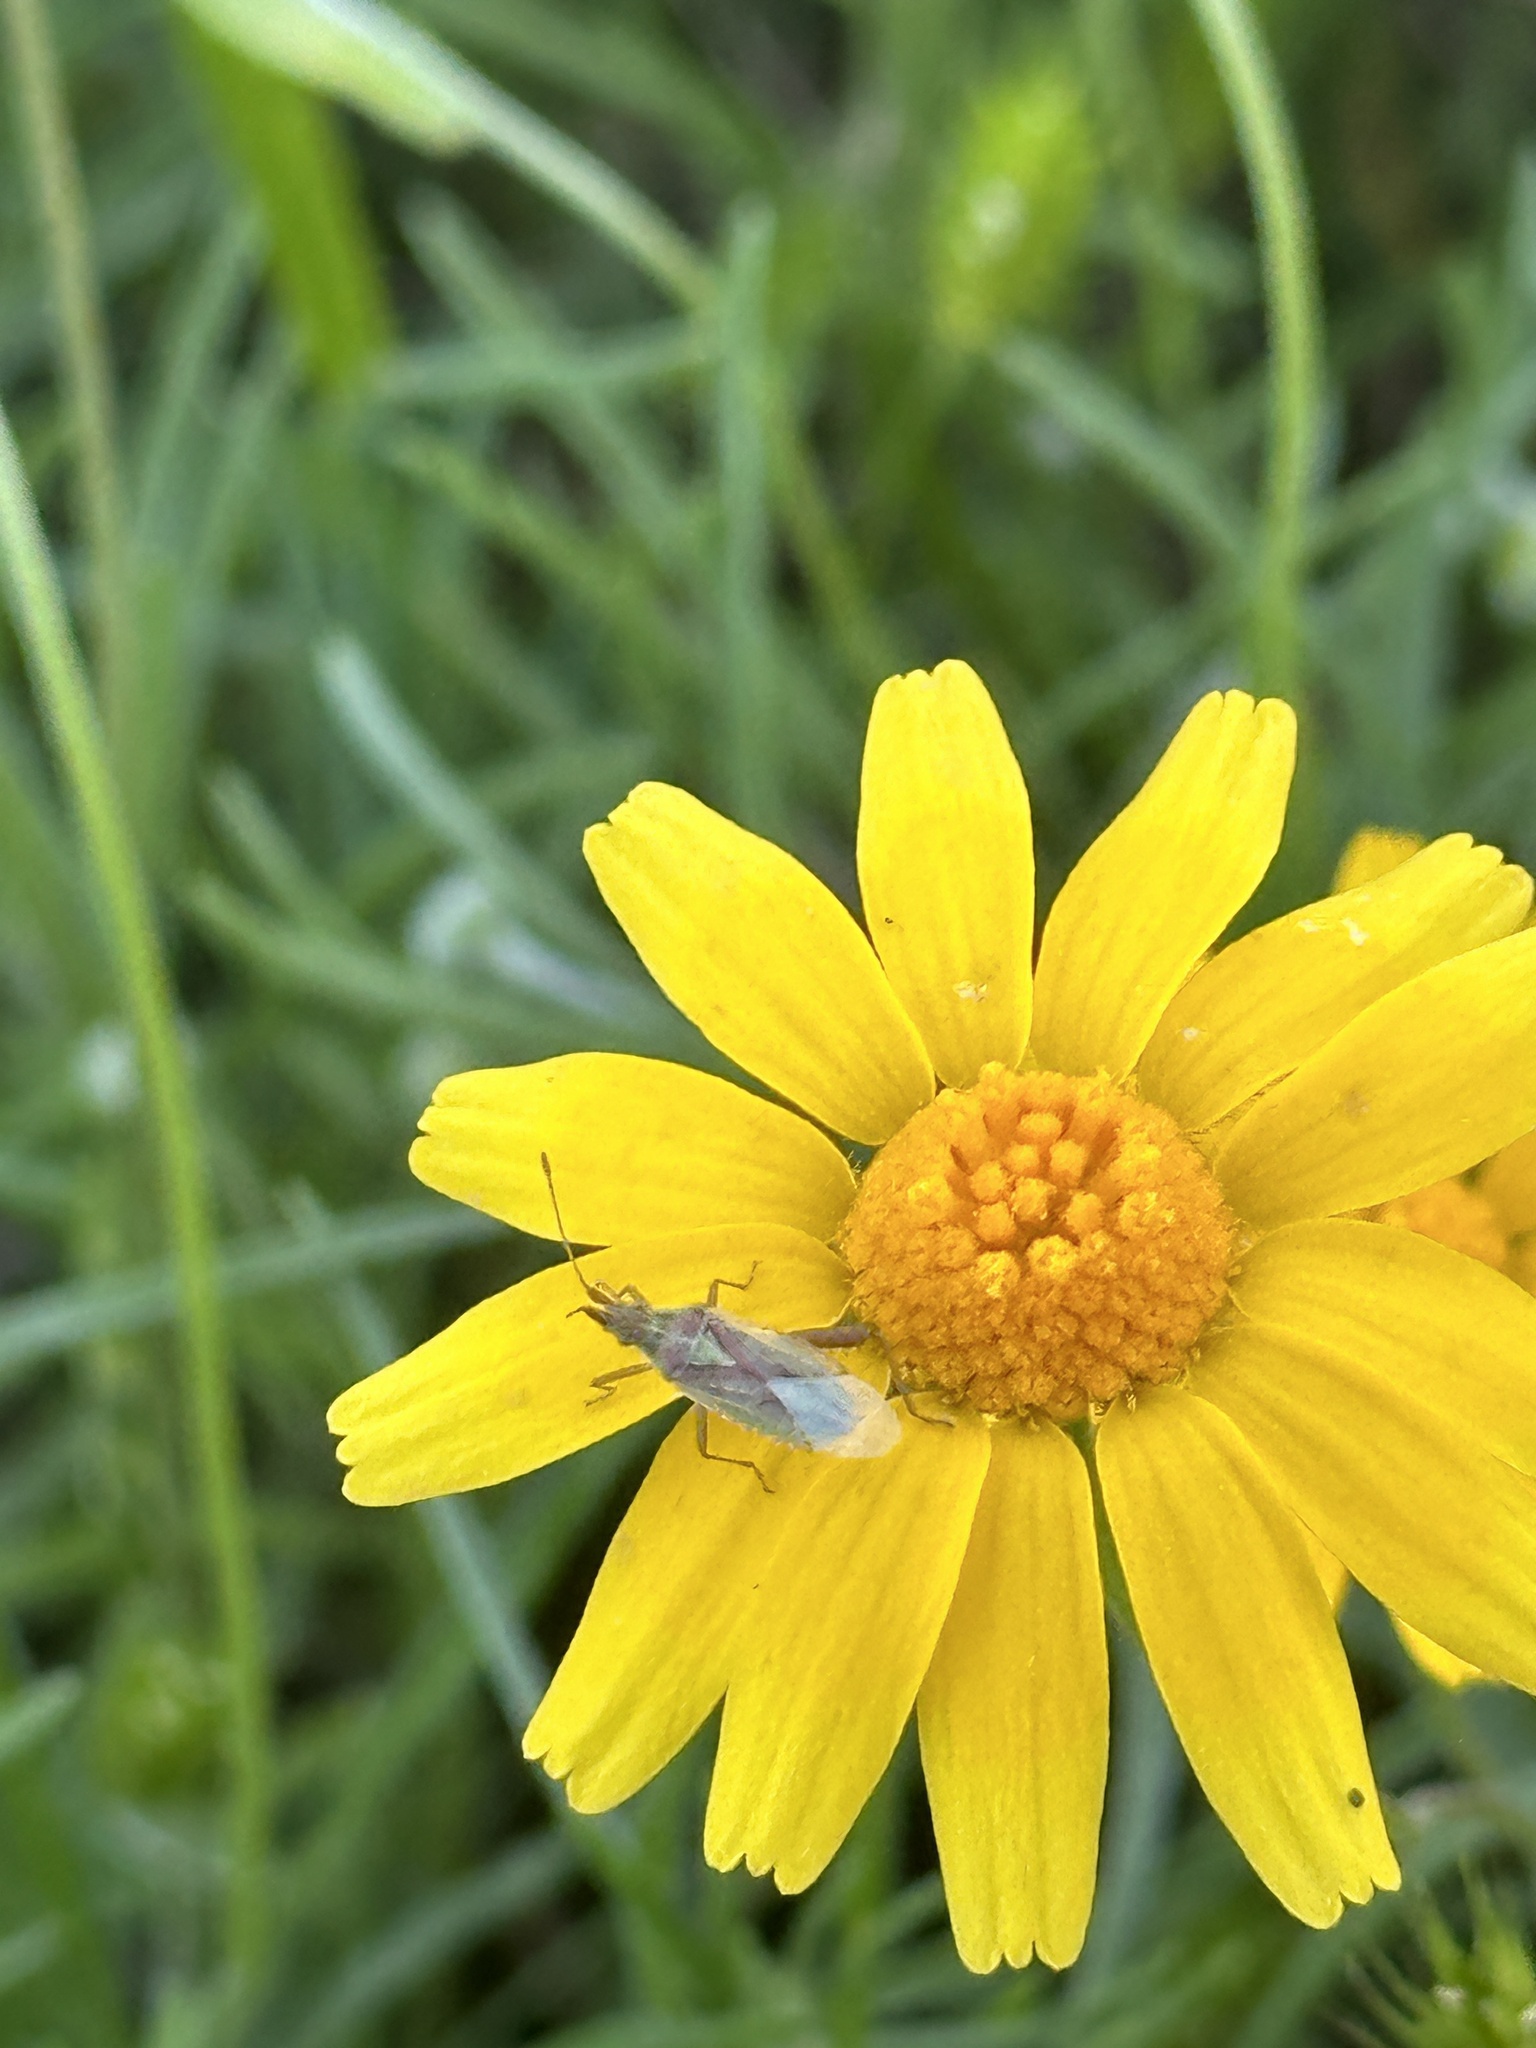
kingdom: Animalia
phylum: Arthropoda
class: Insecta
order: Hemiptera
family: Rhopalidae
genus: Harmostes
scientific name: Harmostes reflexulus
